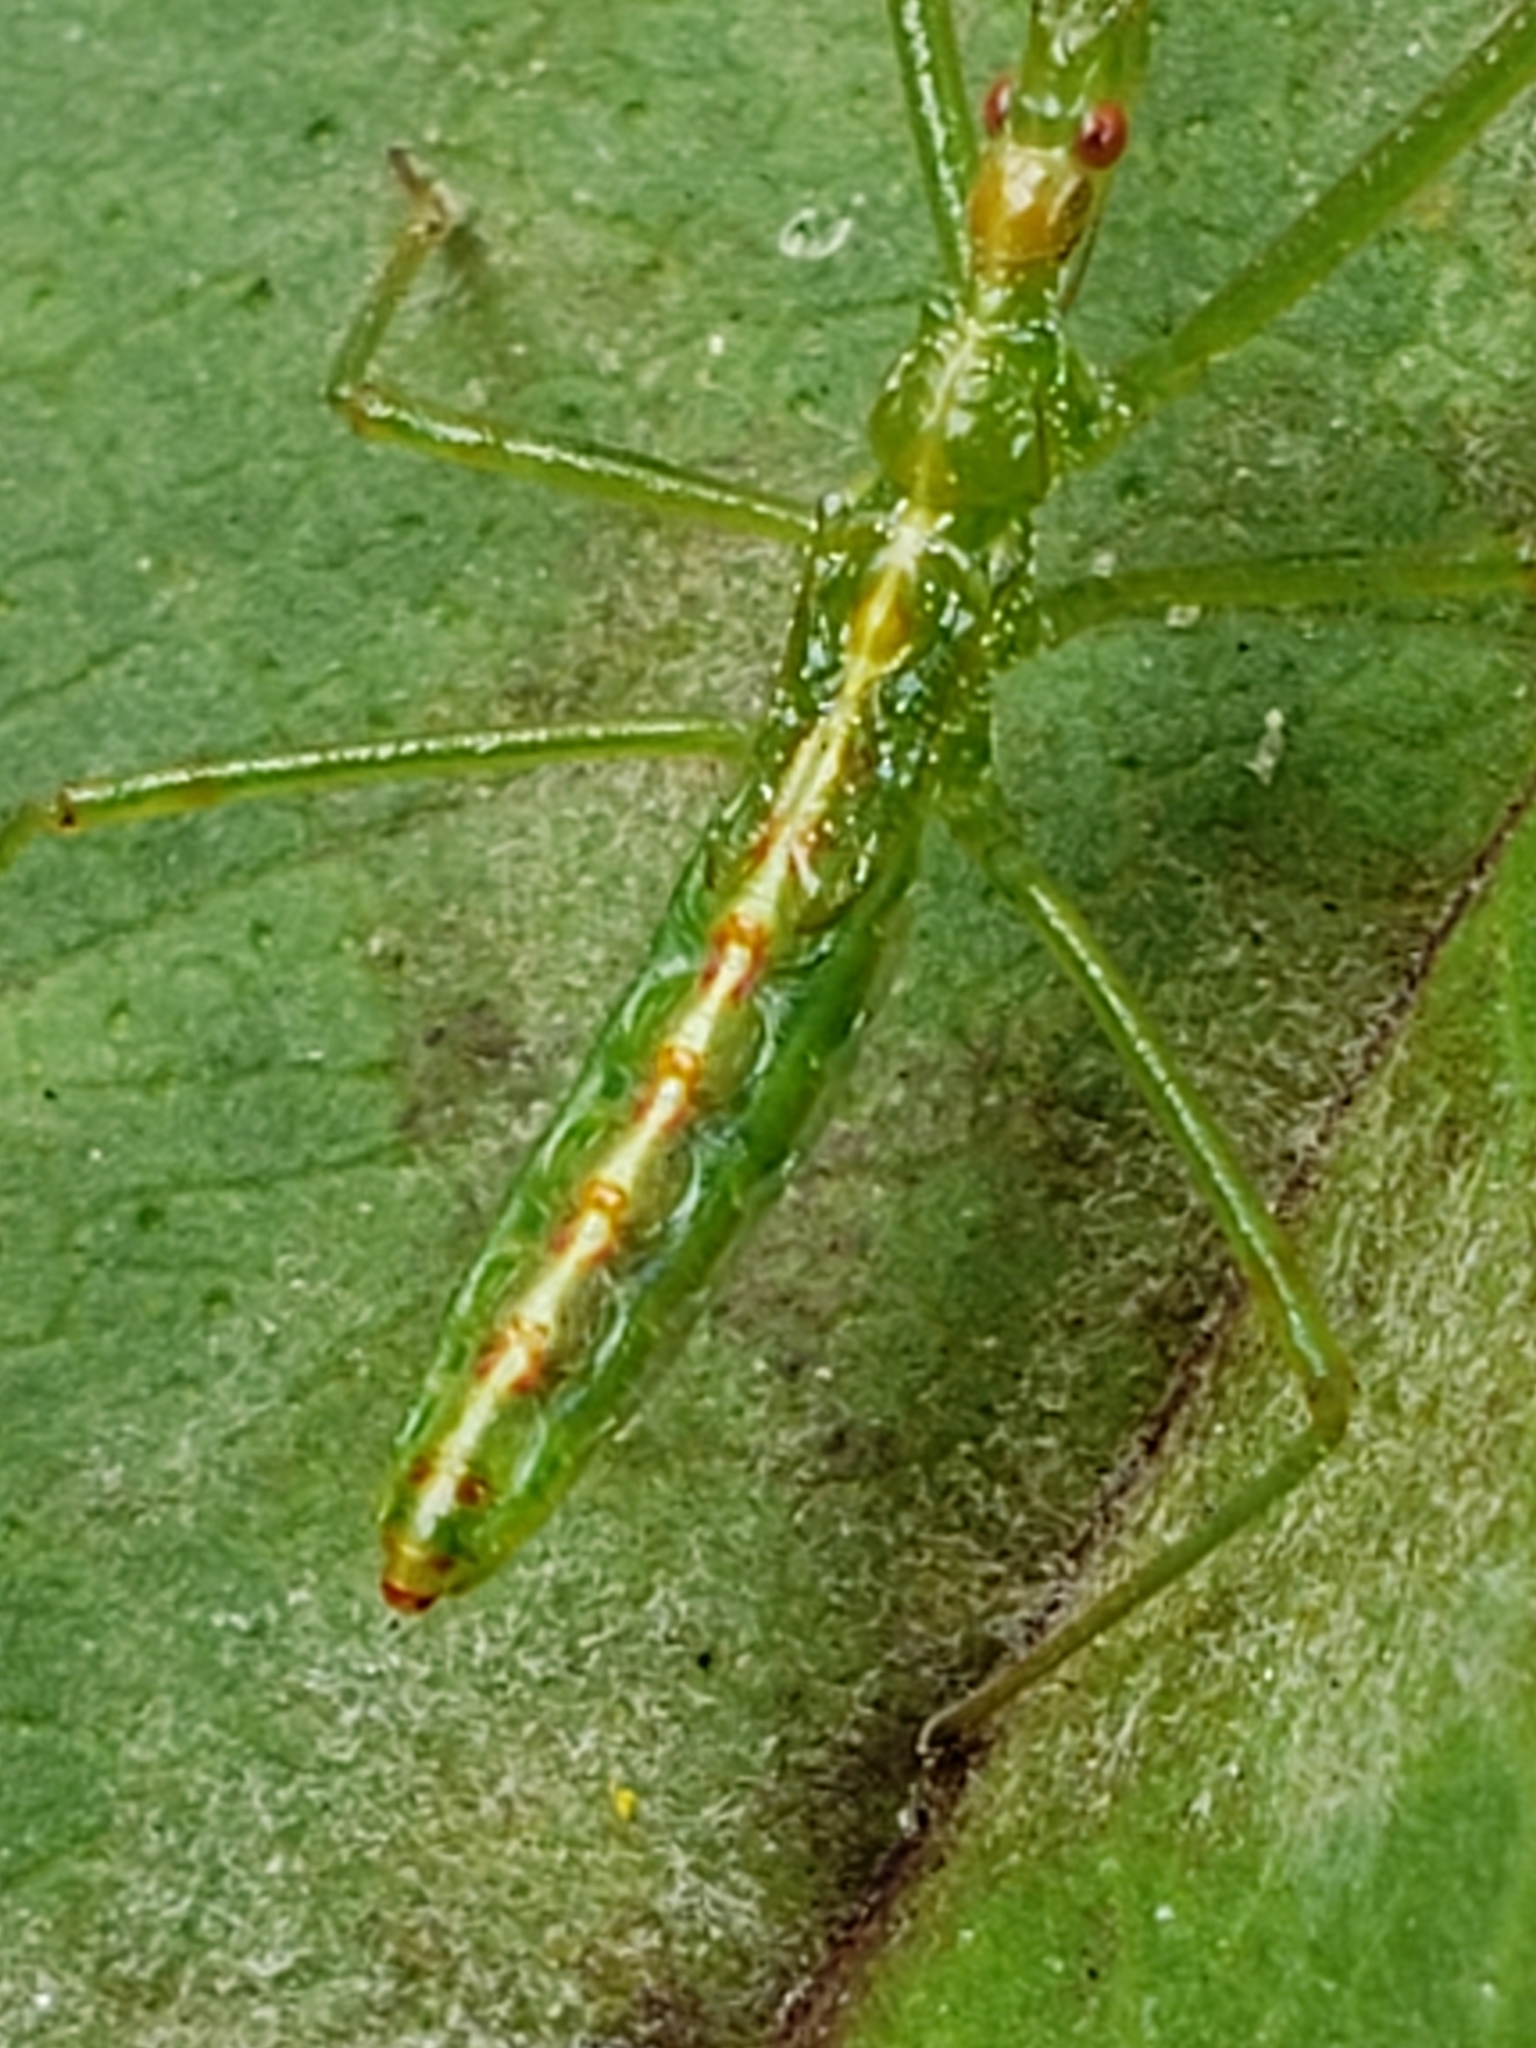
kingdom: Animalia
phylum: Arthropoda
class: Insecta
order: Hemiptera
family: Reduviidae
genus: Zelus
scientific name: Zelus luridus
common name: Pale green assassin bug
